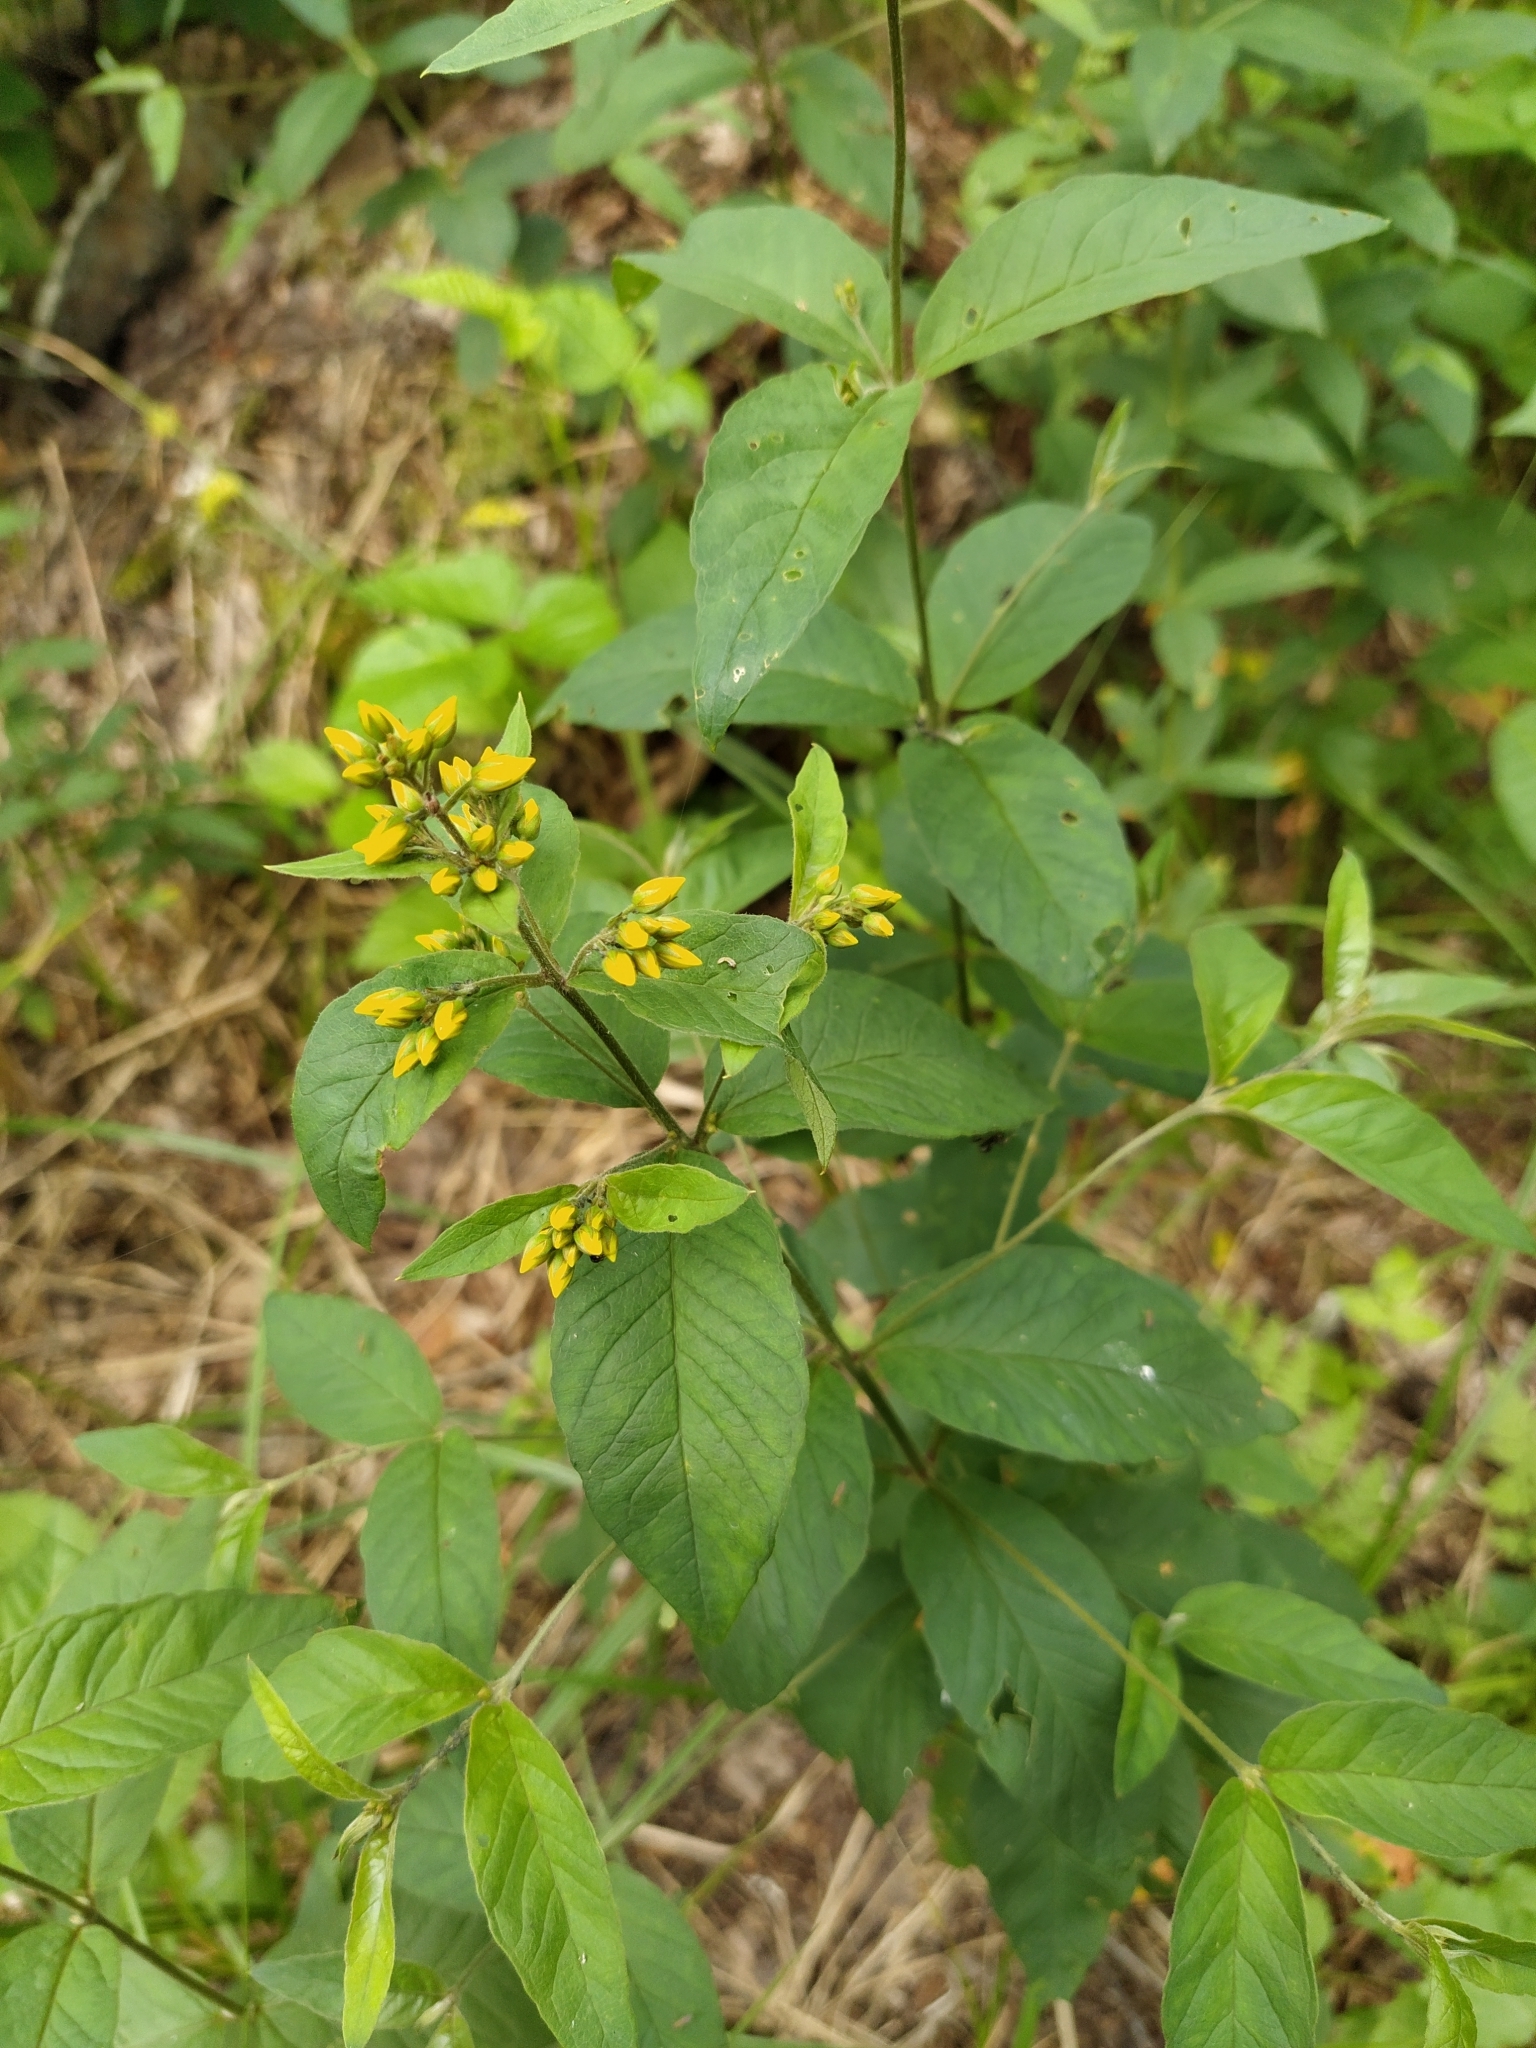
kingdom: Plantae
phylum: Tracheophyta
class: Magnoliopsida
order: Ericales
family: Primulaceae
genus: Lysimachia
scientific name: Lysimachia vulgaris
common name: Yellow loosestrife
